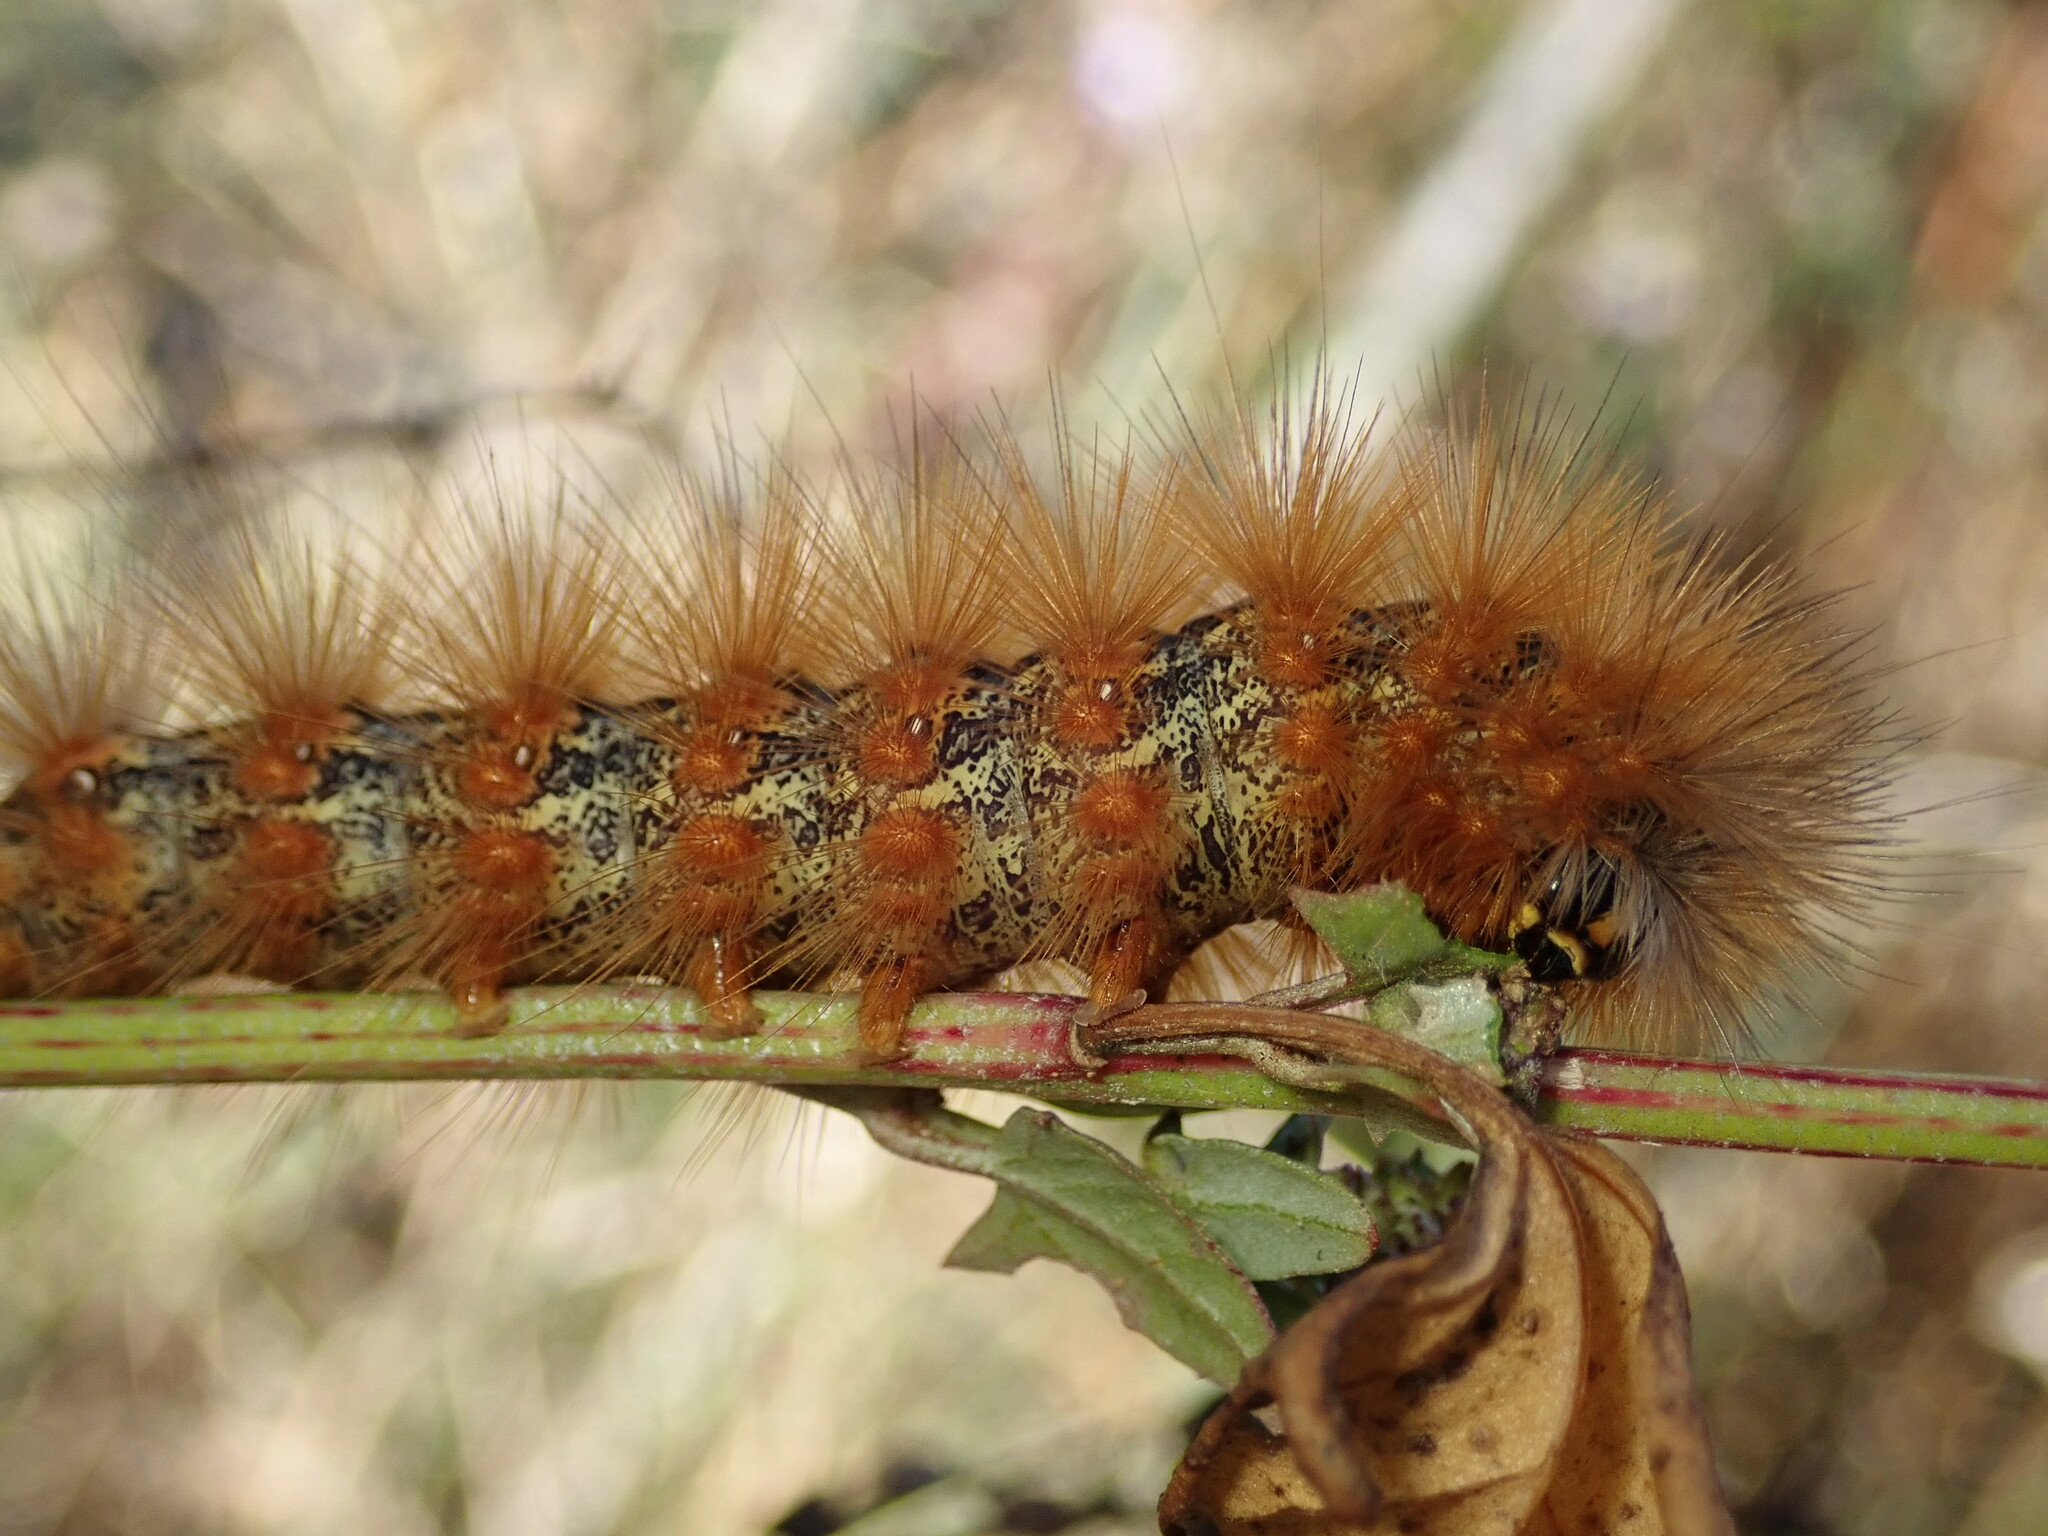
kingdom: Animalia
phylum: Arthropoda
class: Insecta
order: Lepidoptera
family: Erebidae
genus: Estigmene
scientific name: Estigmene acrea
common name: Salt marsh moth
